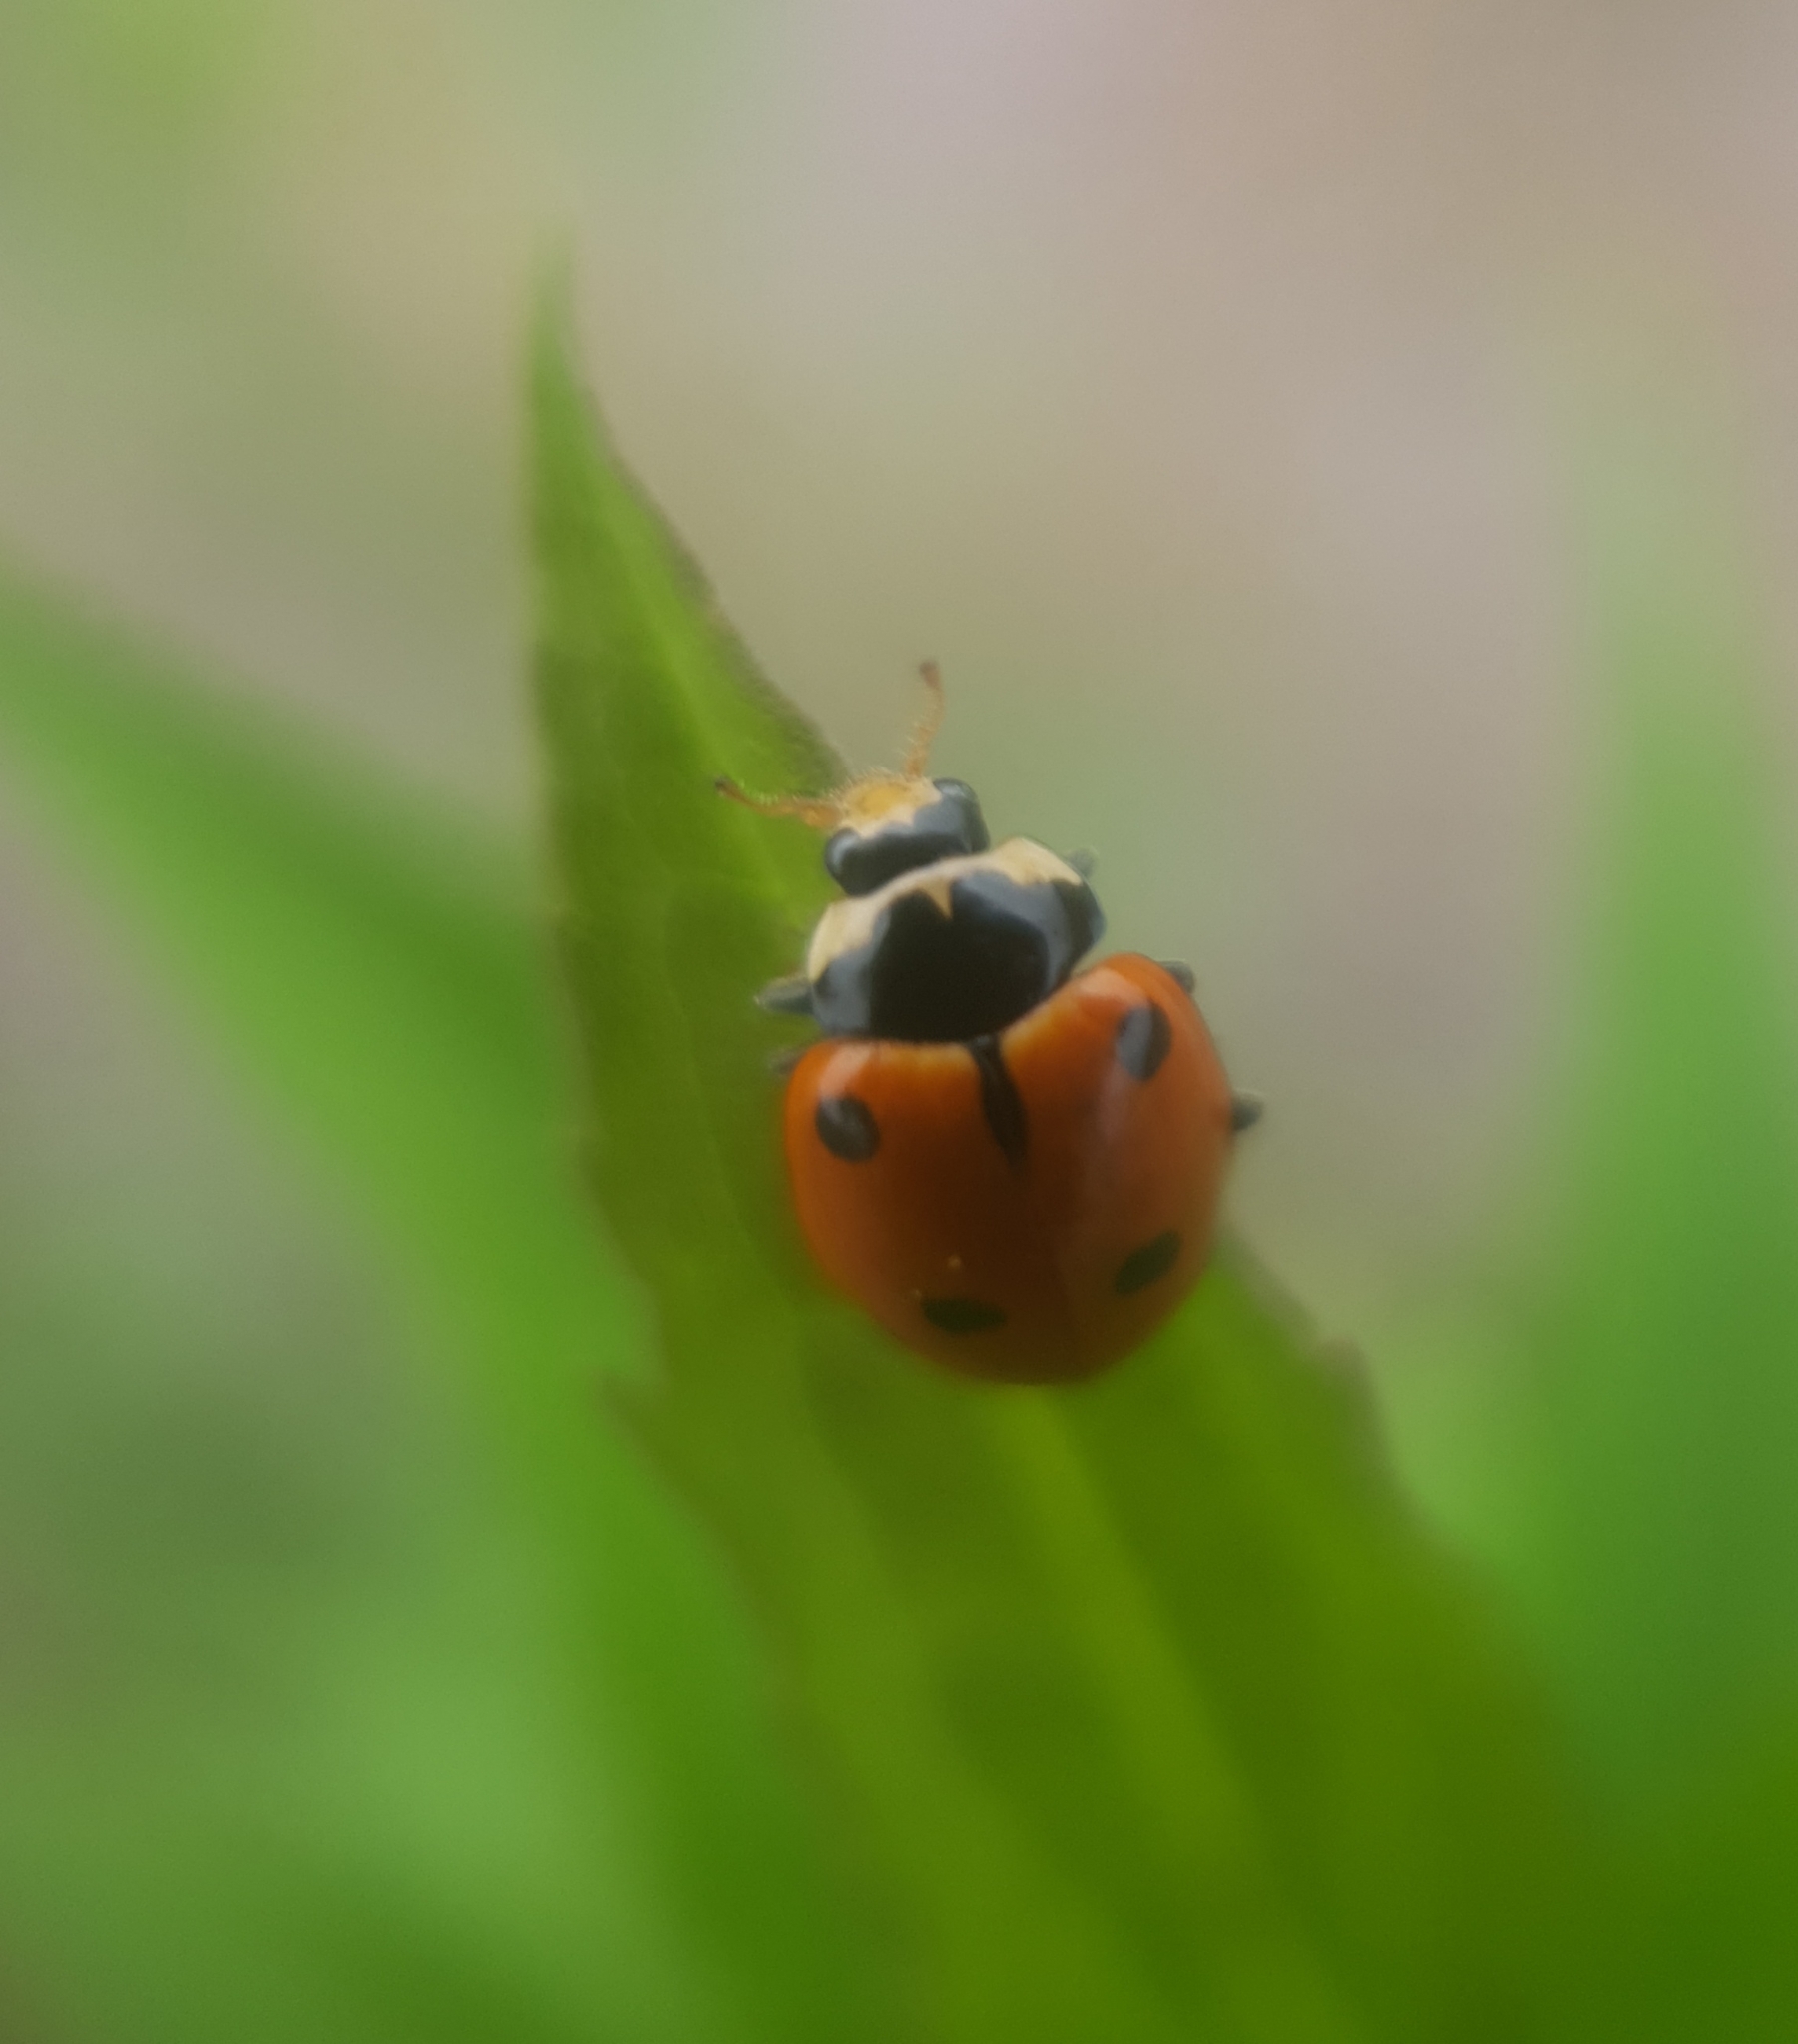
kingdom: Animalia
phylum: Arthropoda
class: Insecta
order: Coleoptera
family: Coccinellidae
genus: Ceratomegilla
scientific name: Ceratomegilla undecimnotata
